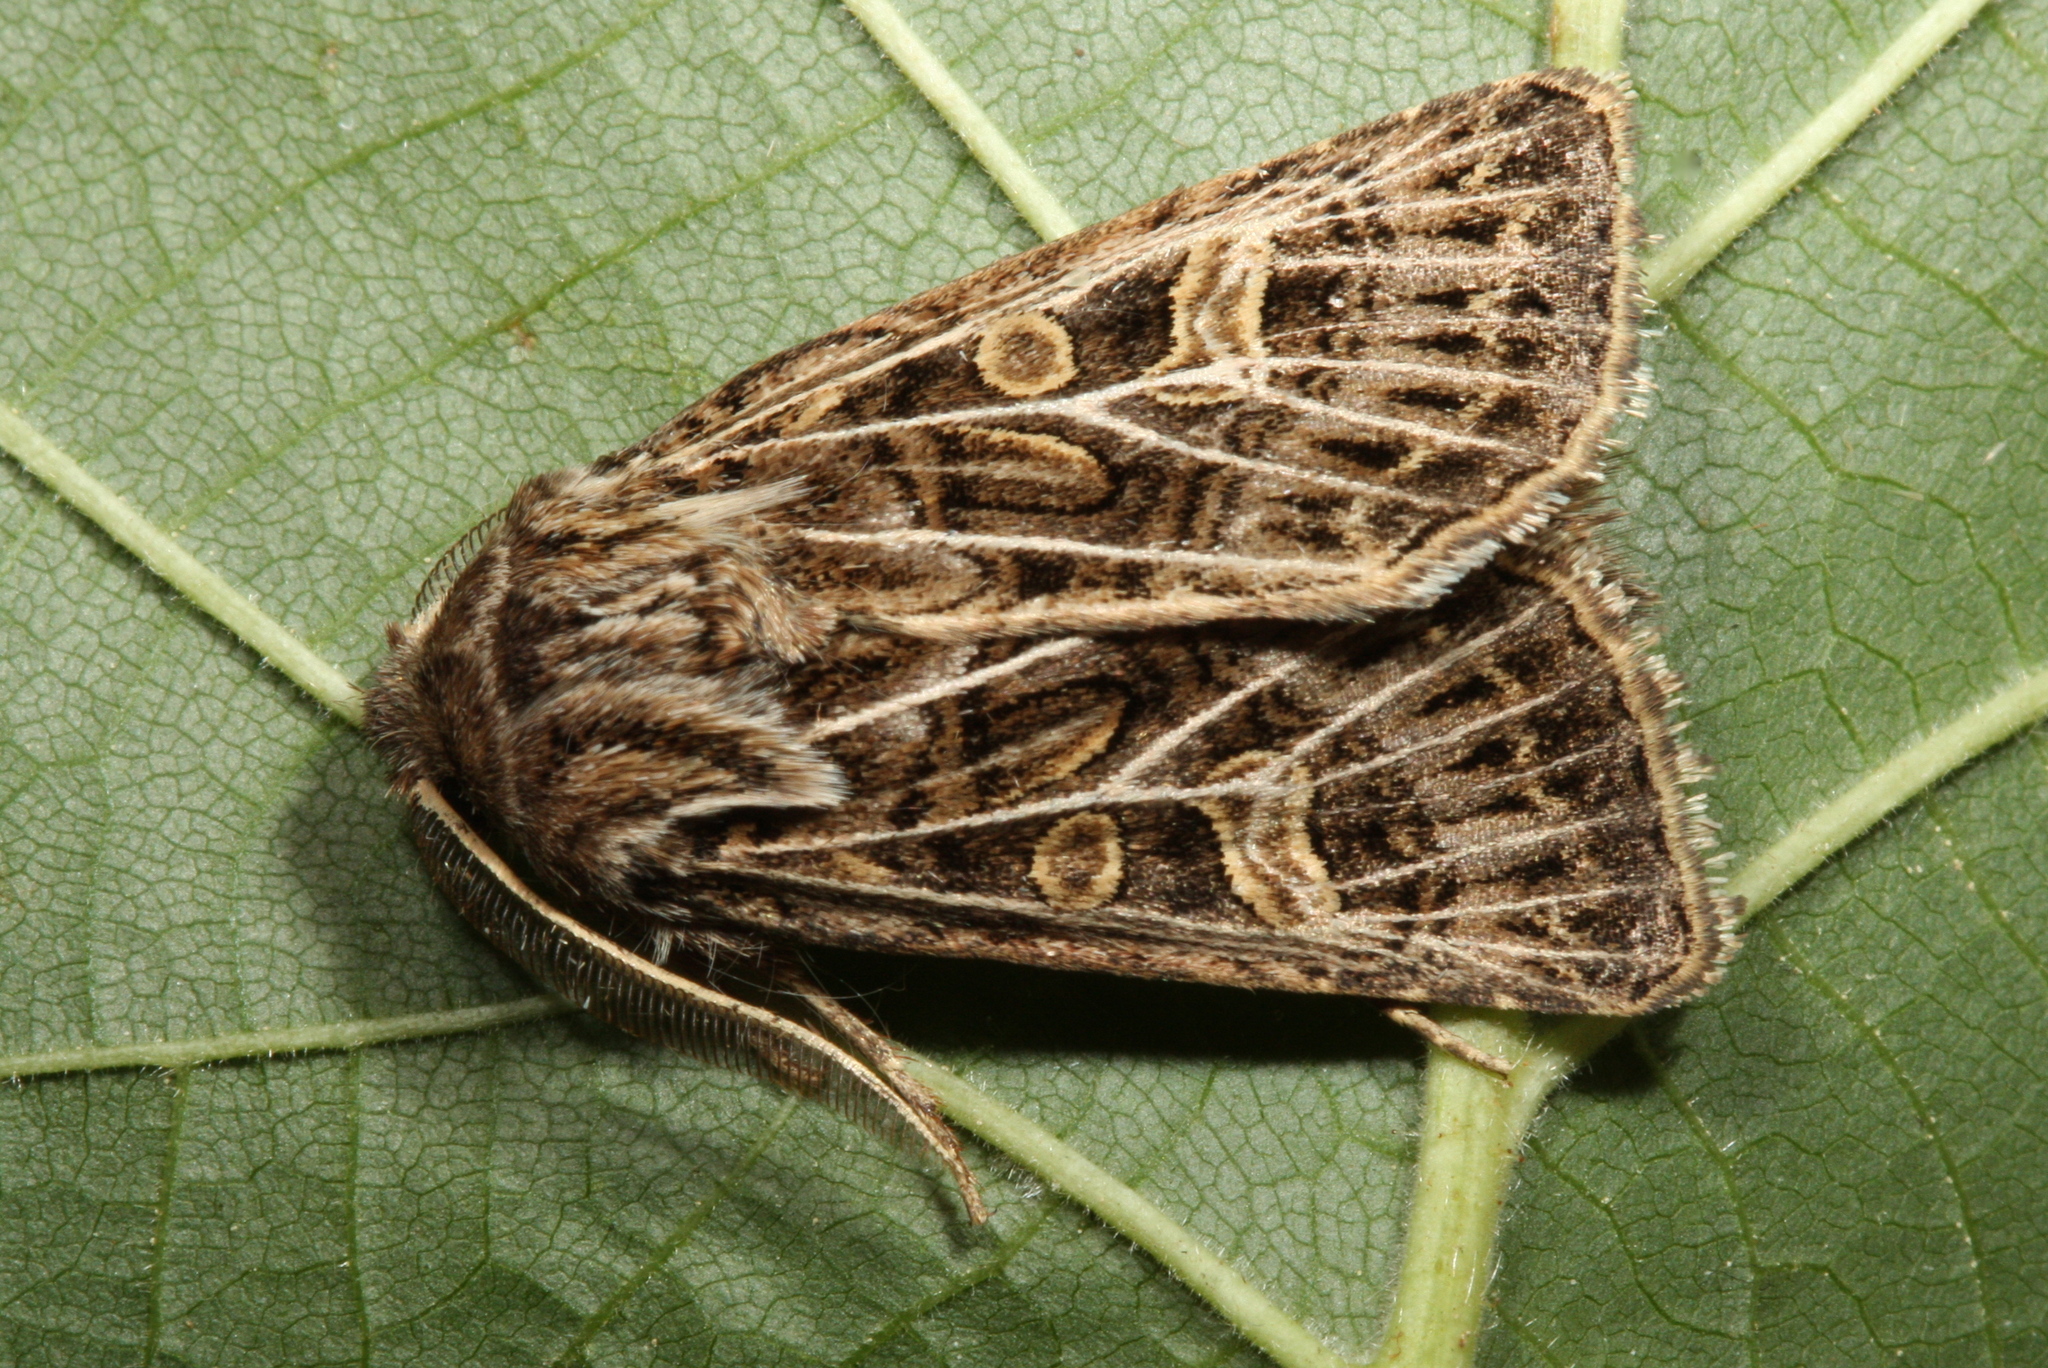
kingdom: Animalia
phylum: Arthropoda
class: Insecta
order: Lepidoptera
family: Noctuidae
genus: Tholera
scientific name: Tholera decimalis
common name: Feathered gothic
